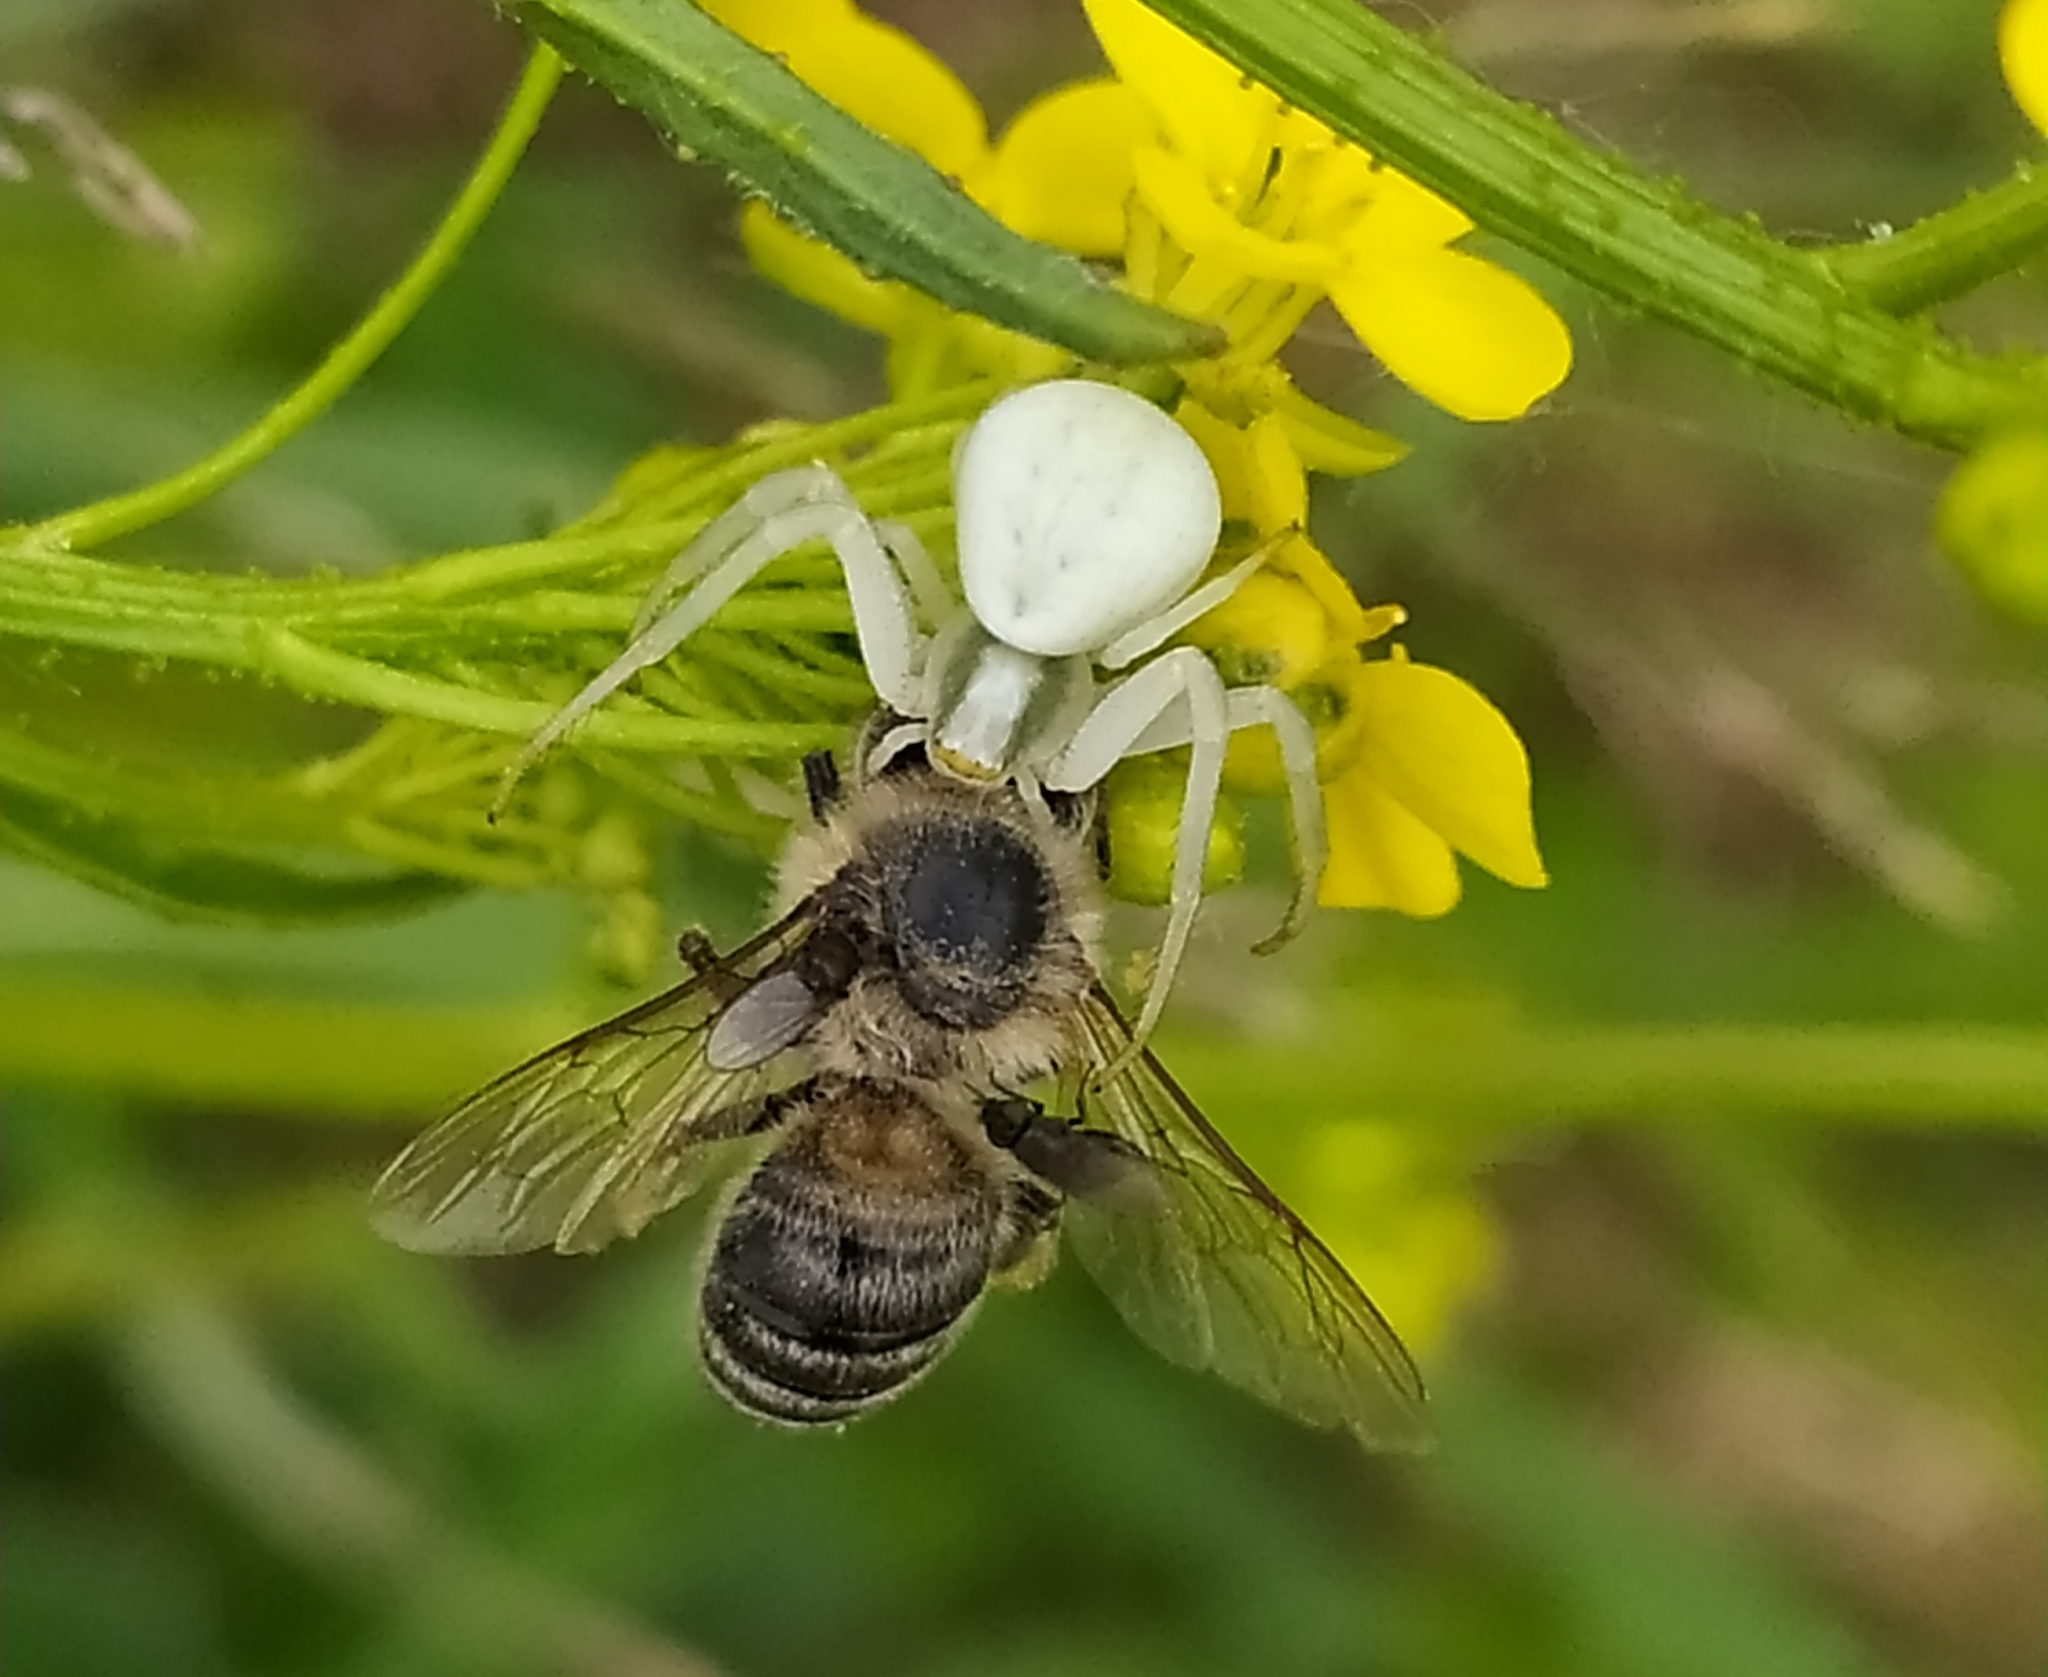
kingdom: Animalia
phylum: Arthropoda
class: Arachnida
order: Araneae
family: Thomisidae
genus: Misumena
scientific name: Misumena vatia
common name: Goldenrod crab spider
